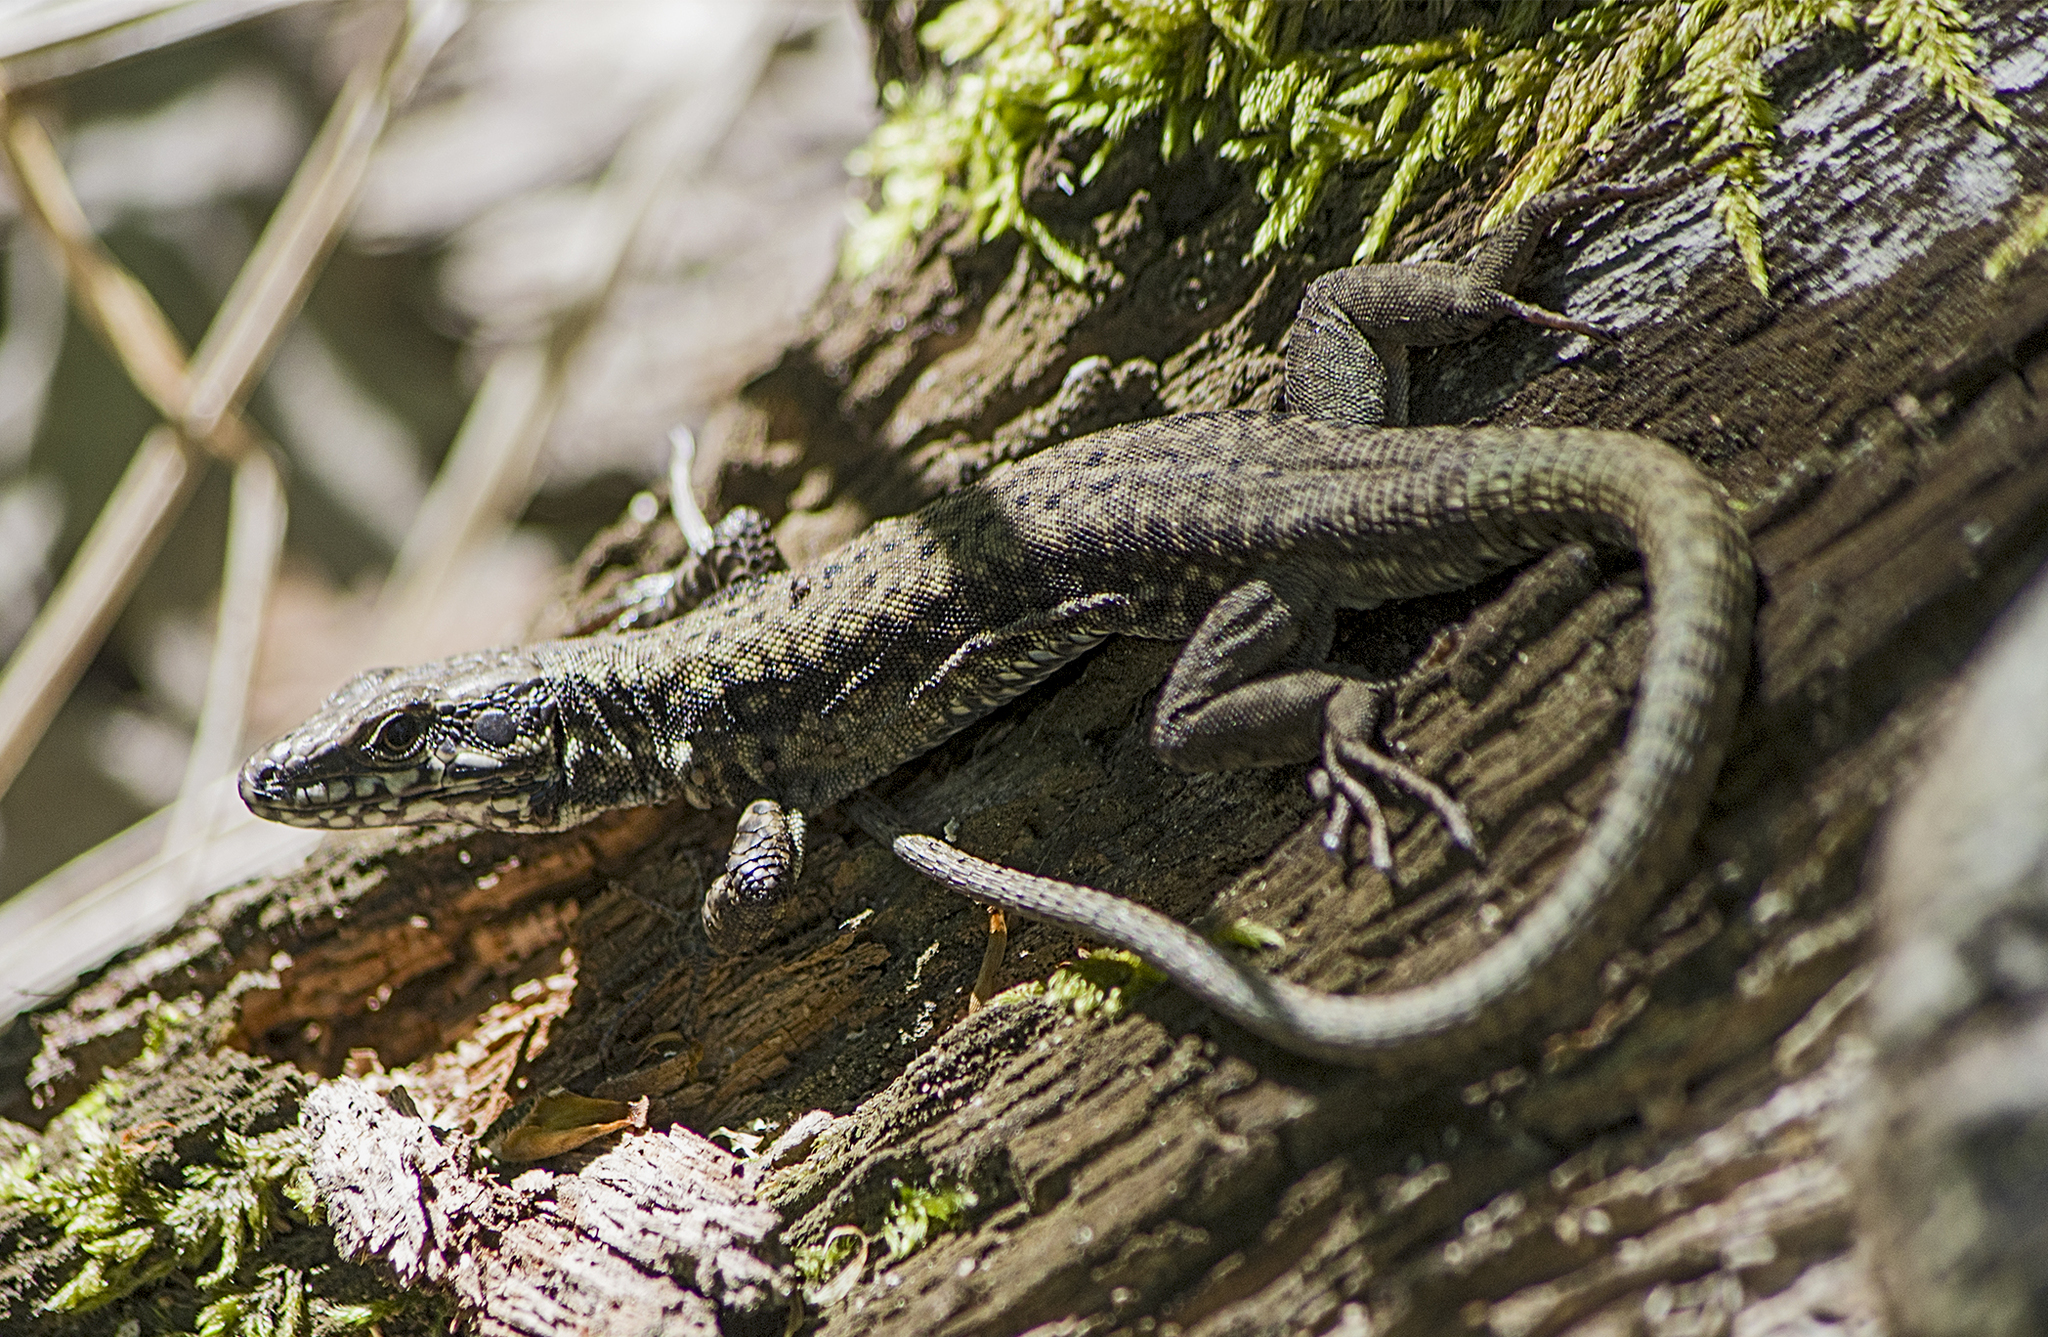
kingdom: Animalia
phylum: Chordata
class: Squamata
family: Lacertidae
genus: Podarcis
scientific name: Podarcis muralis
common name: Common wall lizard
